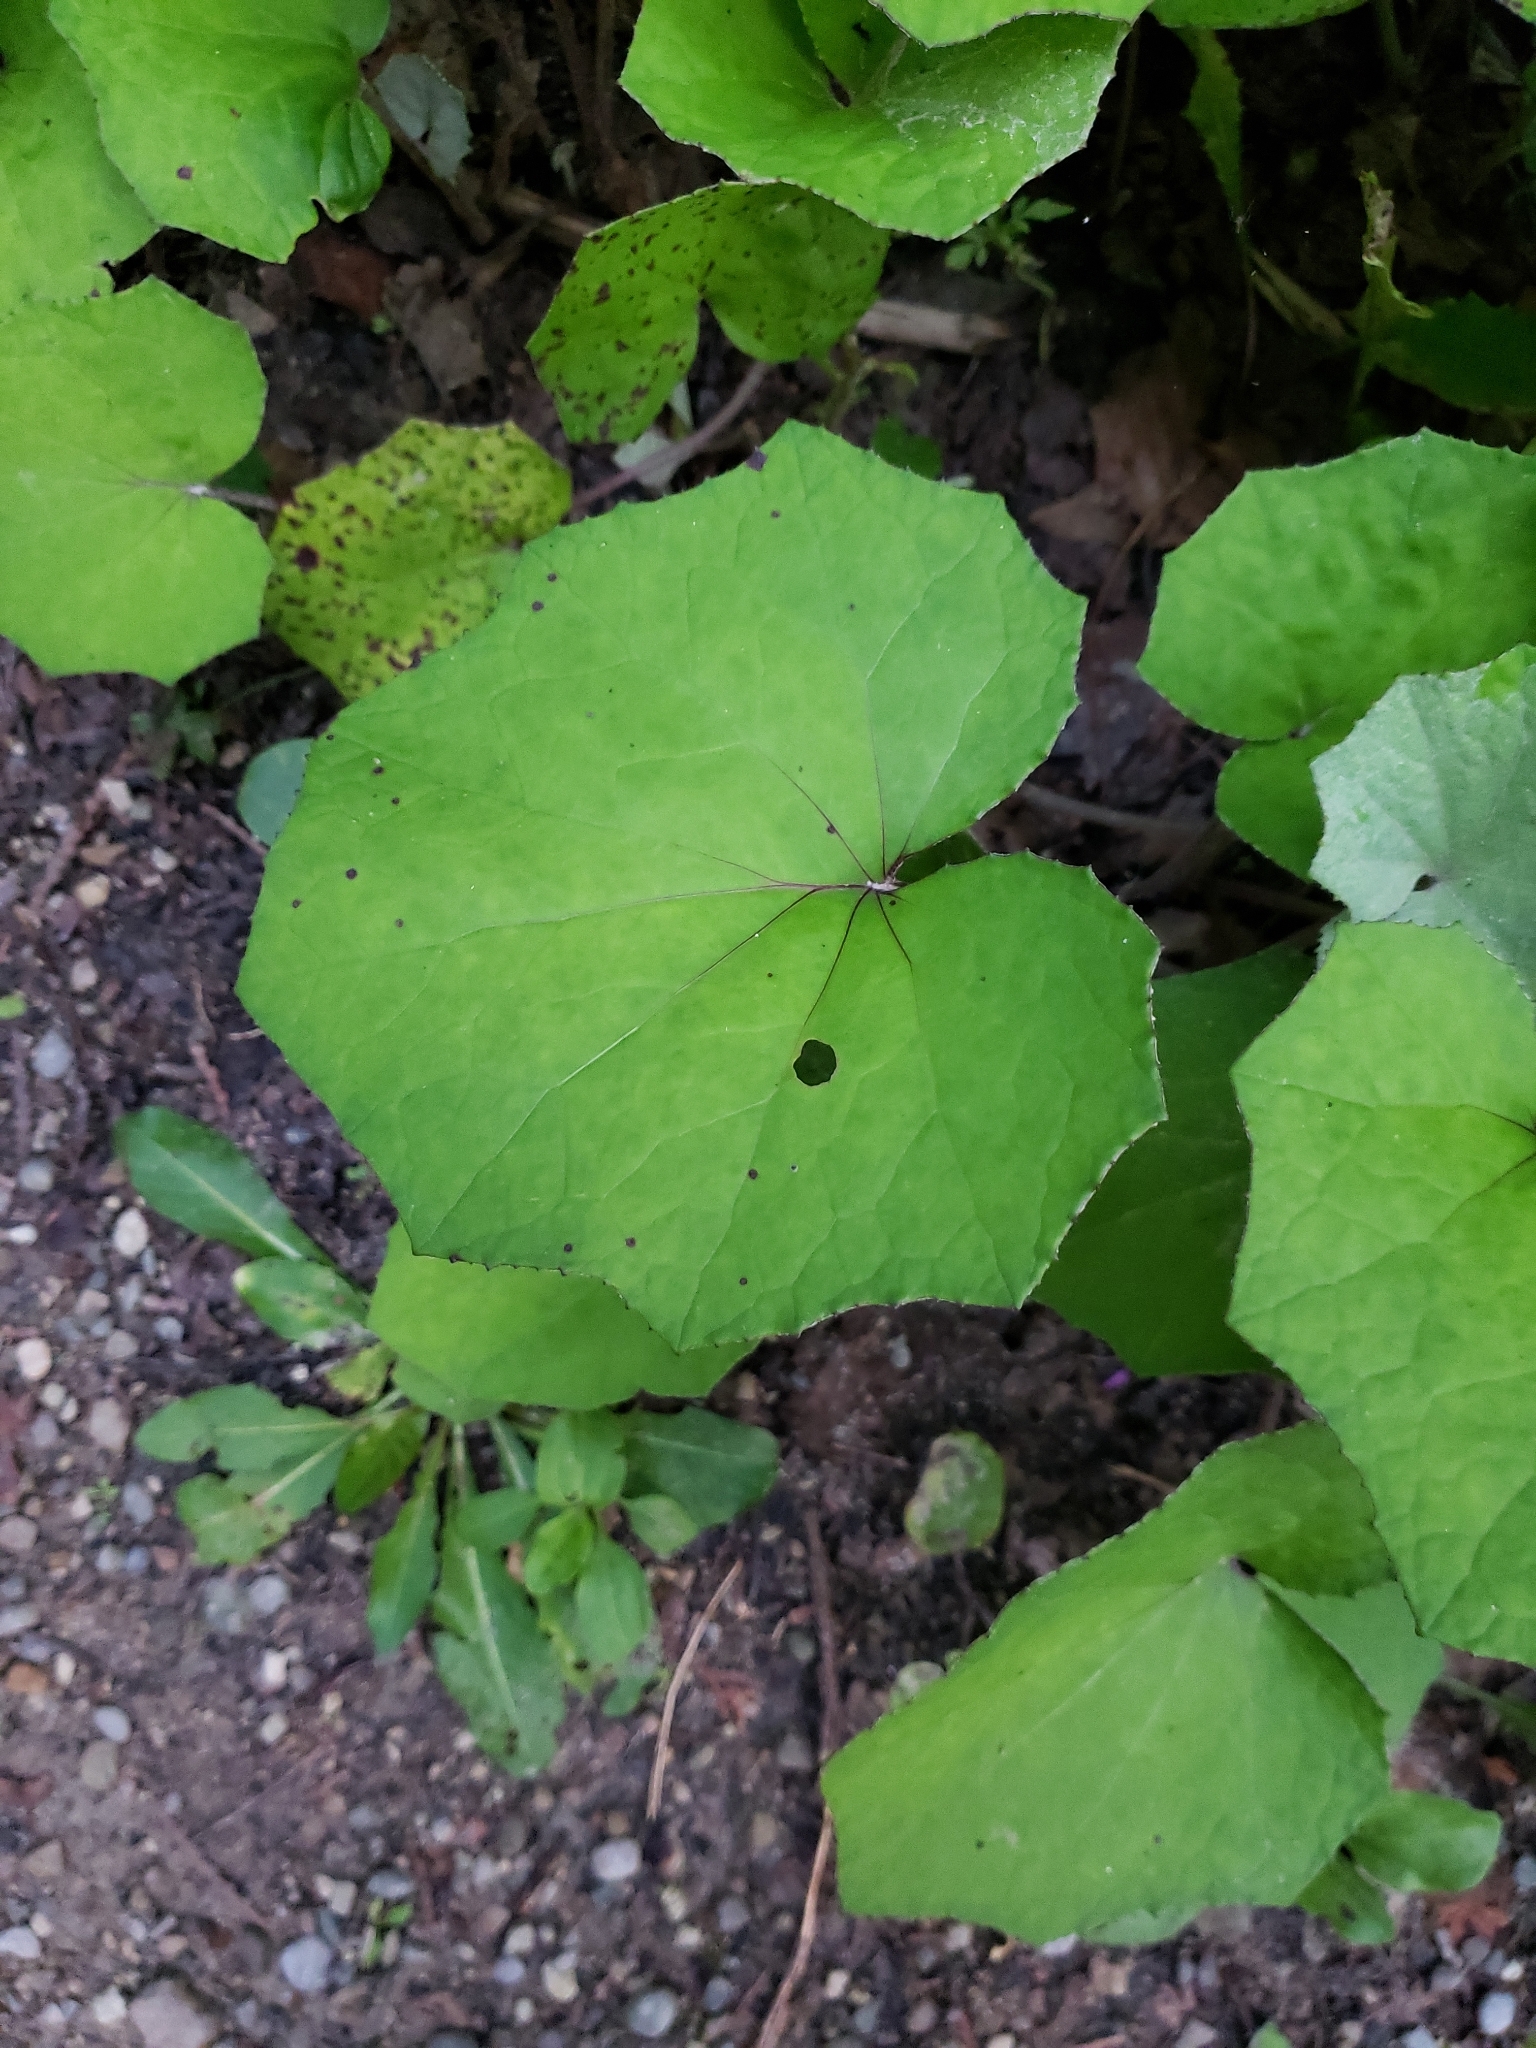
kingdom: Plantae
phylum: Tracheophyta
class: Magnoliopsida
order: Asterales
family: Asteraceae
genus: Tussilago
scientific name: Tussilago farfara
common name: Coltsfoot
